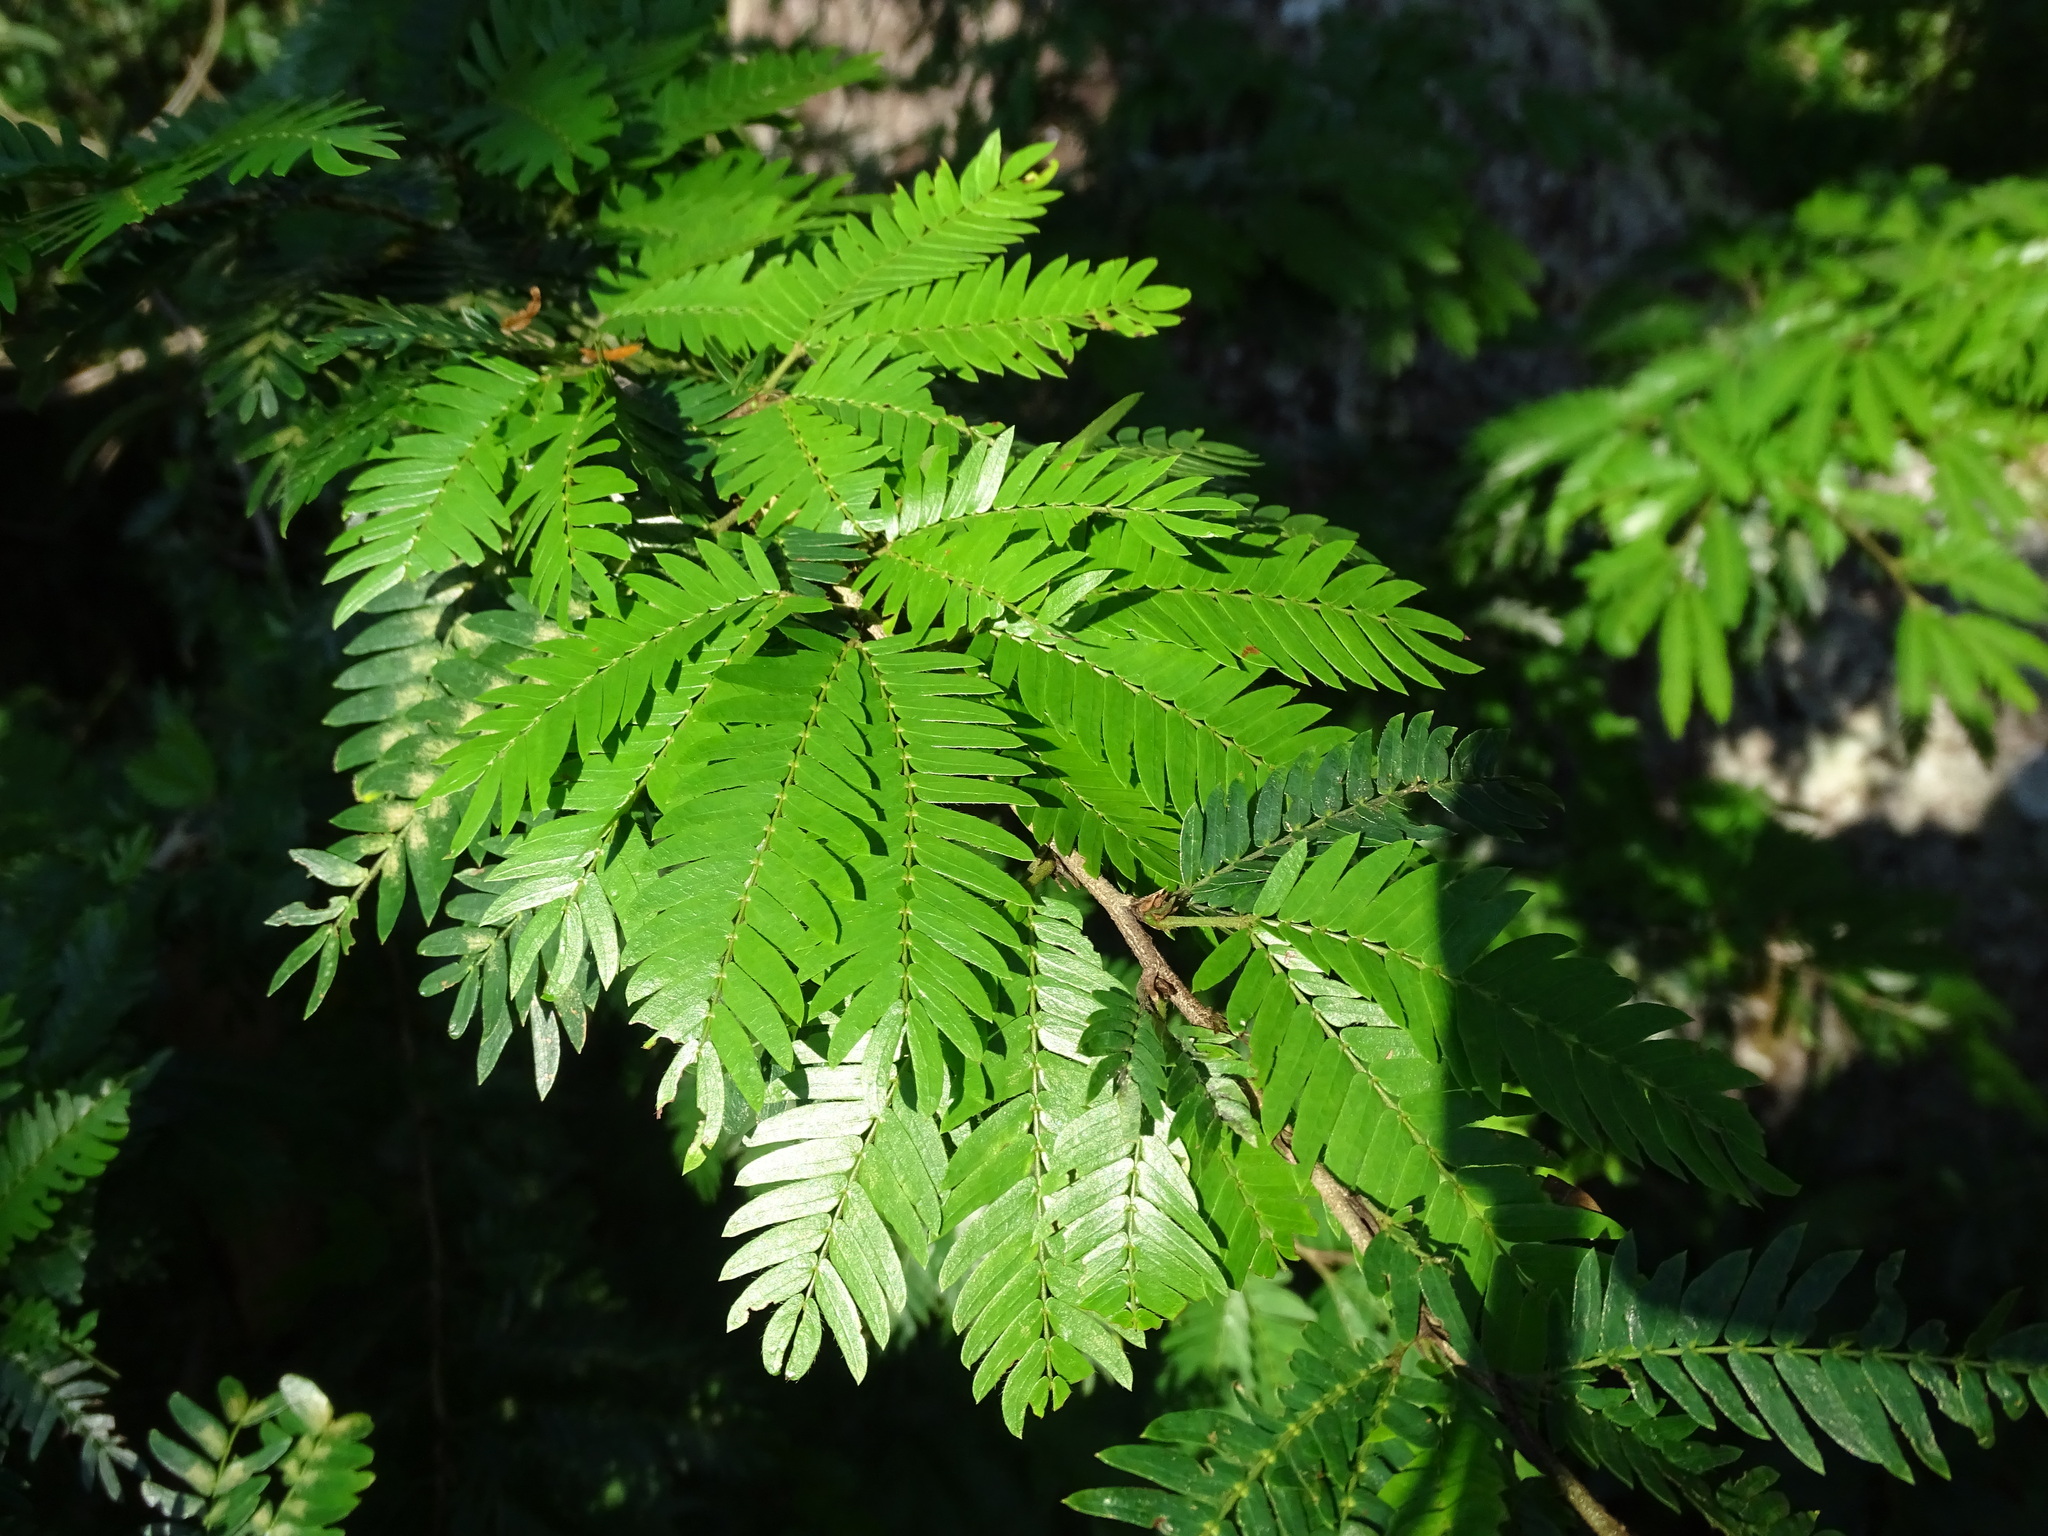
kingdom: Plantae
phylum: Tracheophyta
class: Magnoliopsida
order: Fabales
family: Fabaceae
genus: Calliandra
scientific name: Calliandra magdalenae
